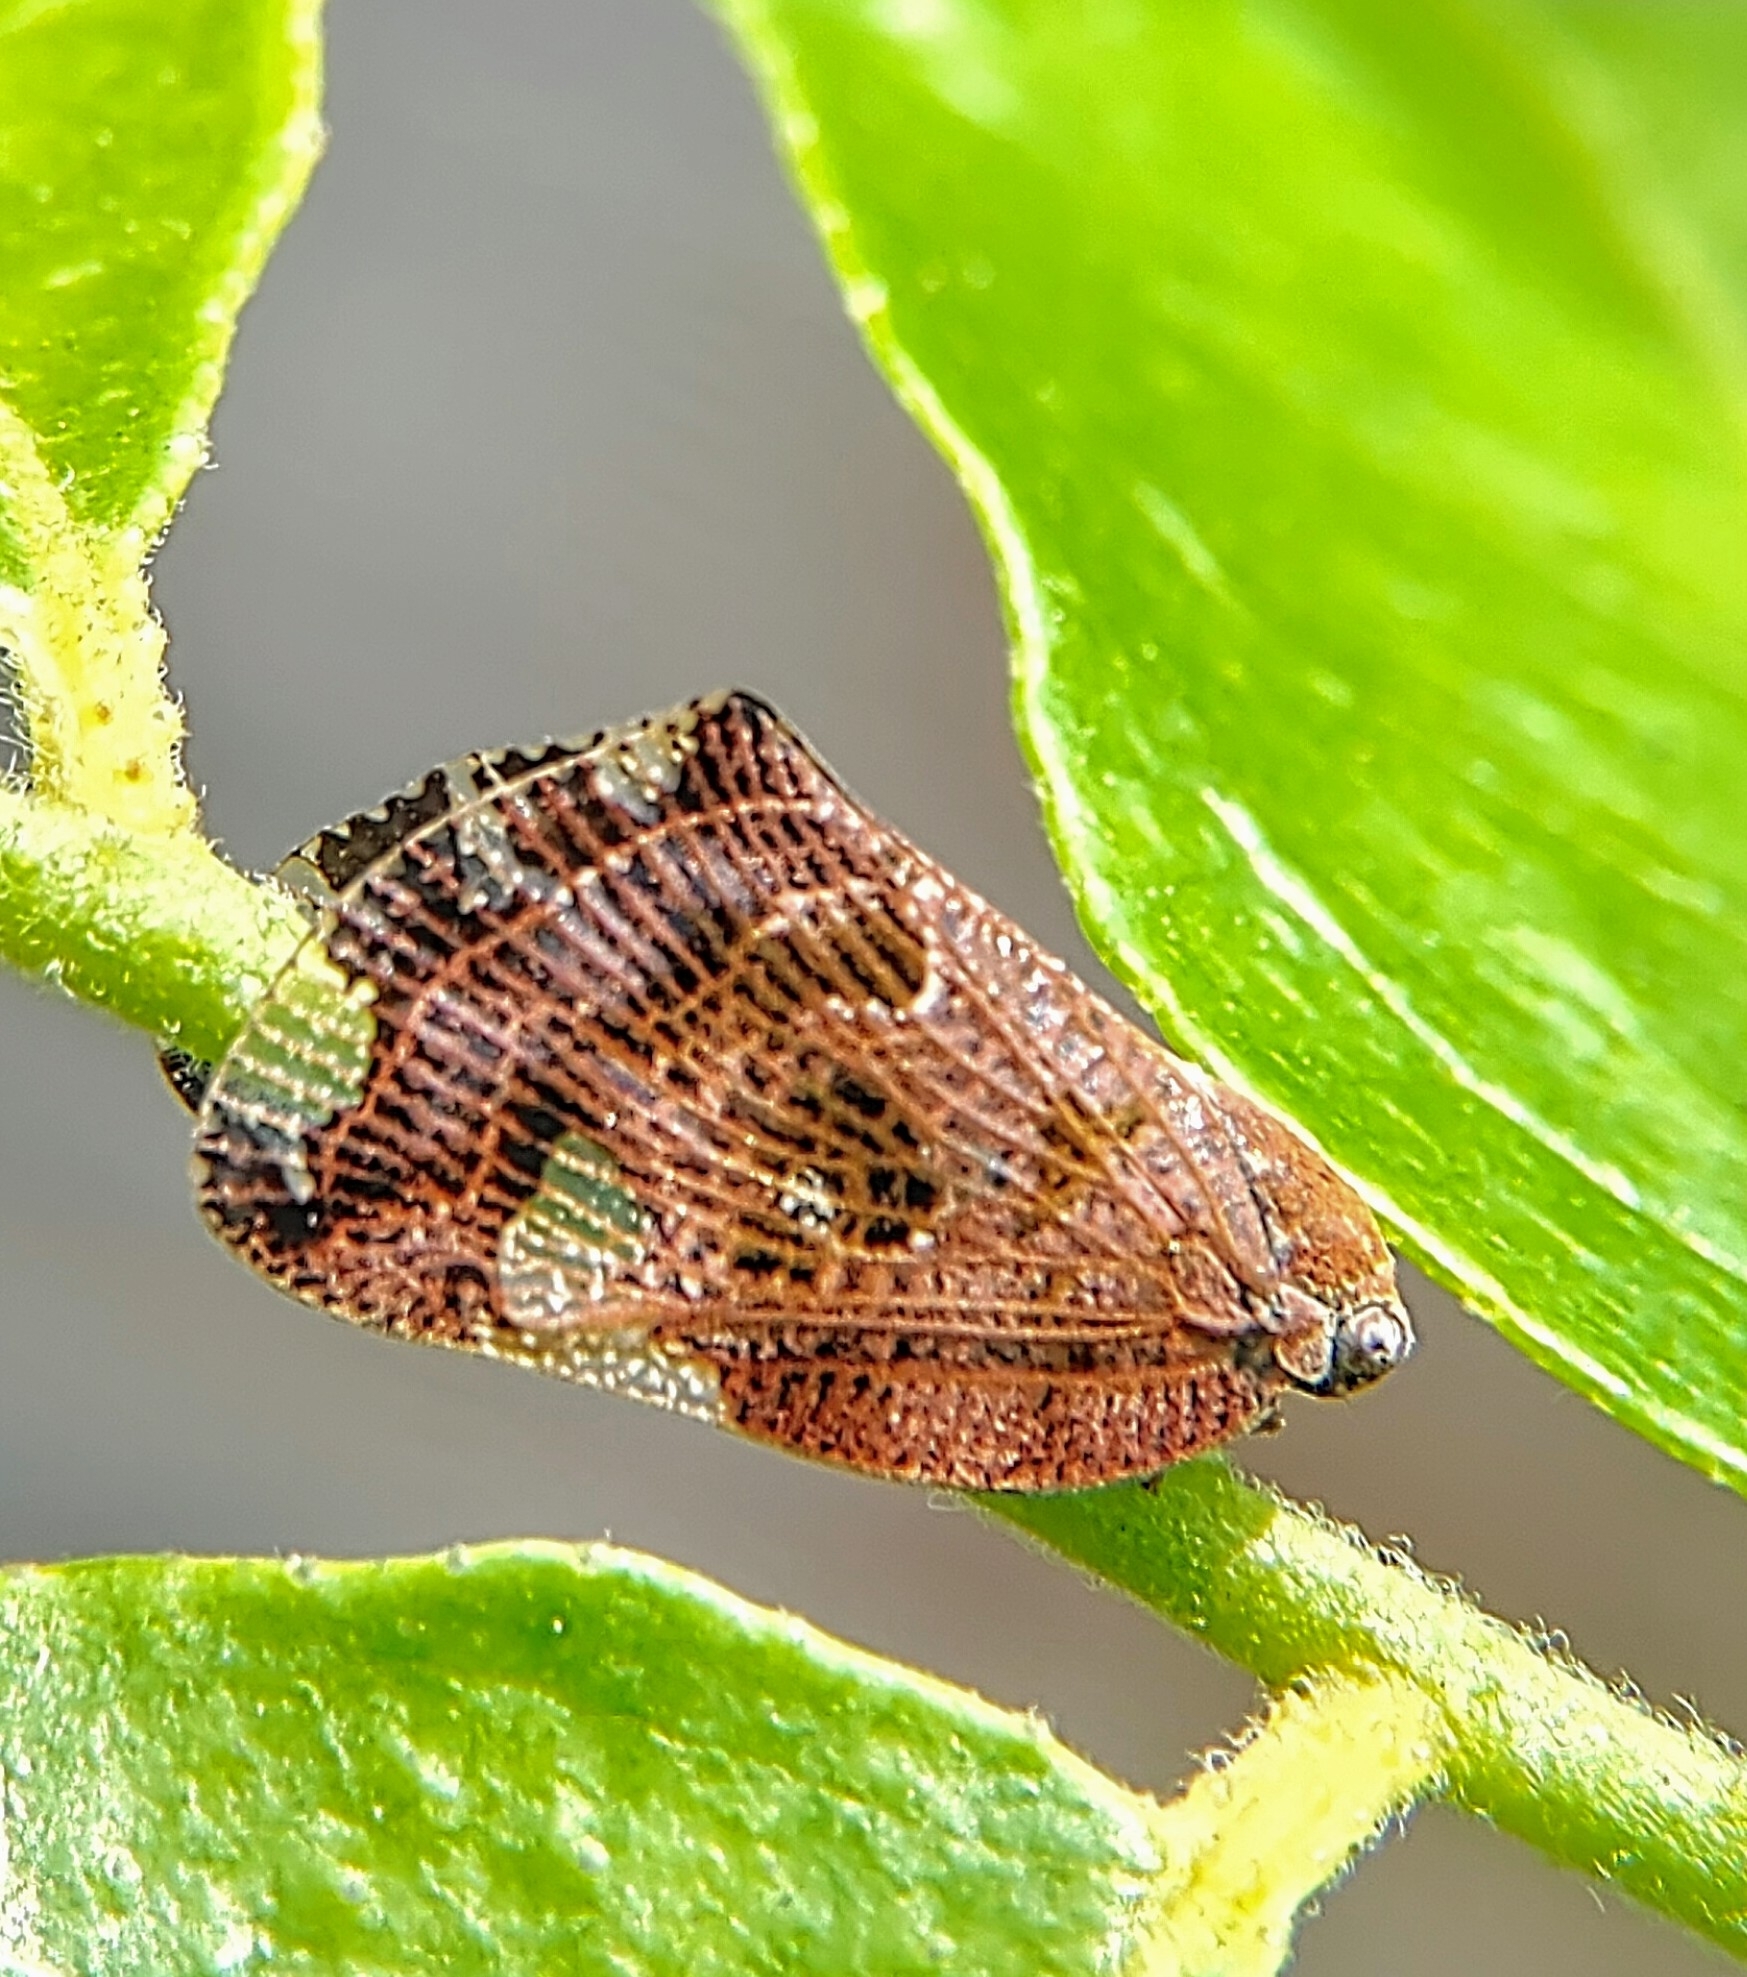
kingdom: Animalia
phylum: Arthropoda
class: Insecta
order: Hemiptera
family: Ricaniidae
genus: Ricania
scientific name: Ricania speculum
